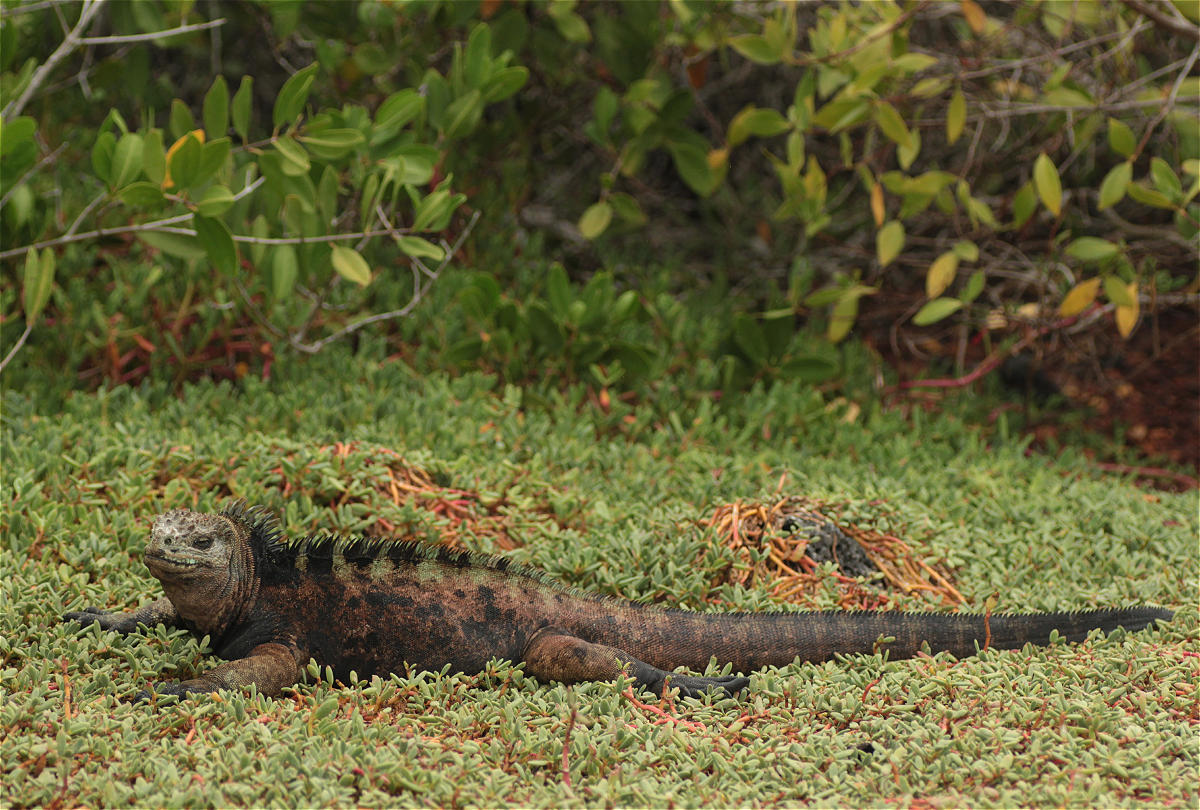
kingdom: Animalia
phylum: Chordata
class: Squamata
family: Iguanidae
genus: Amblyrhynchus
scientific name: Amblyrhynchus cristatus
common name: Marine iguana
